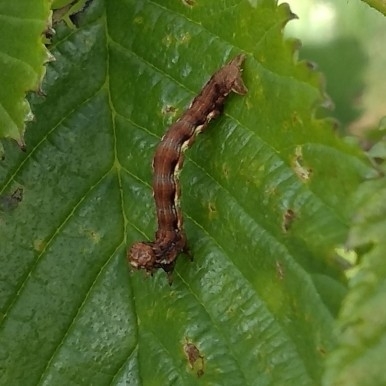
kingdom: Animalia
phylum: Arthropoda
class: Insecta
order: Lepidoptera
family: Geometridae
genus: Erannis
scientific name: Erannis defoliaria
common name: Mottled umber
